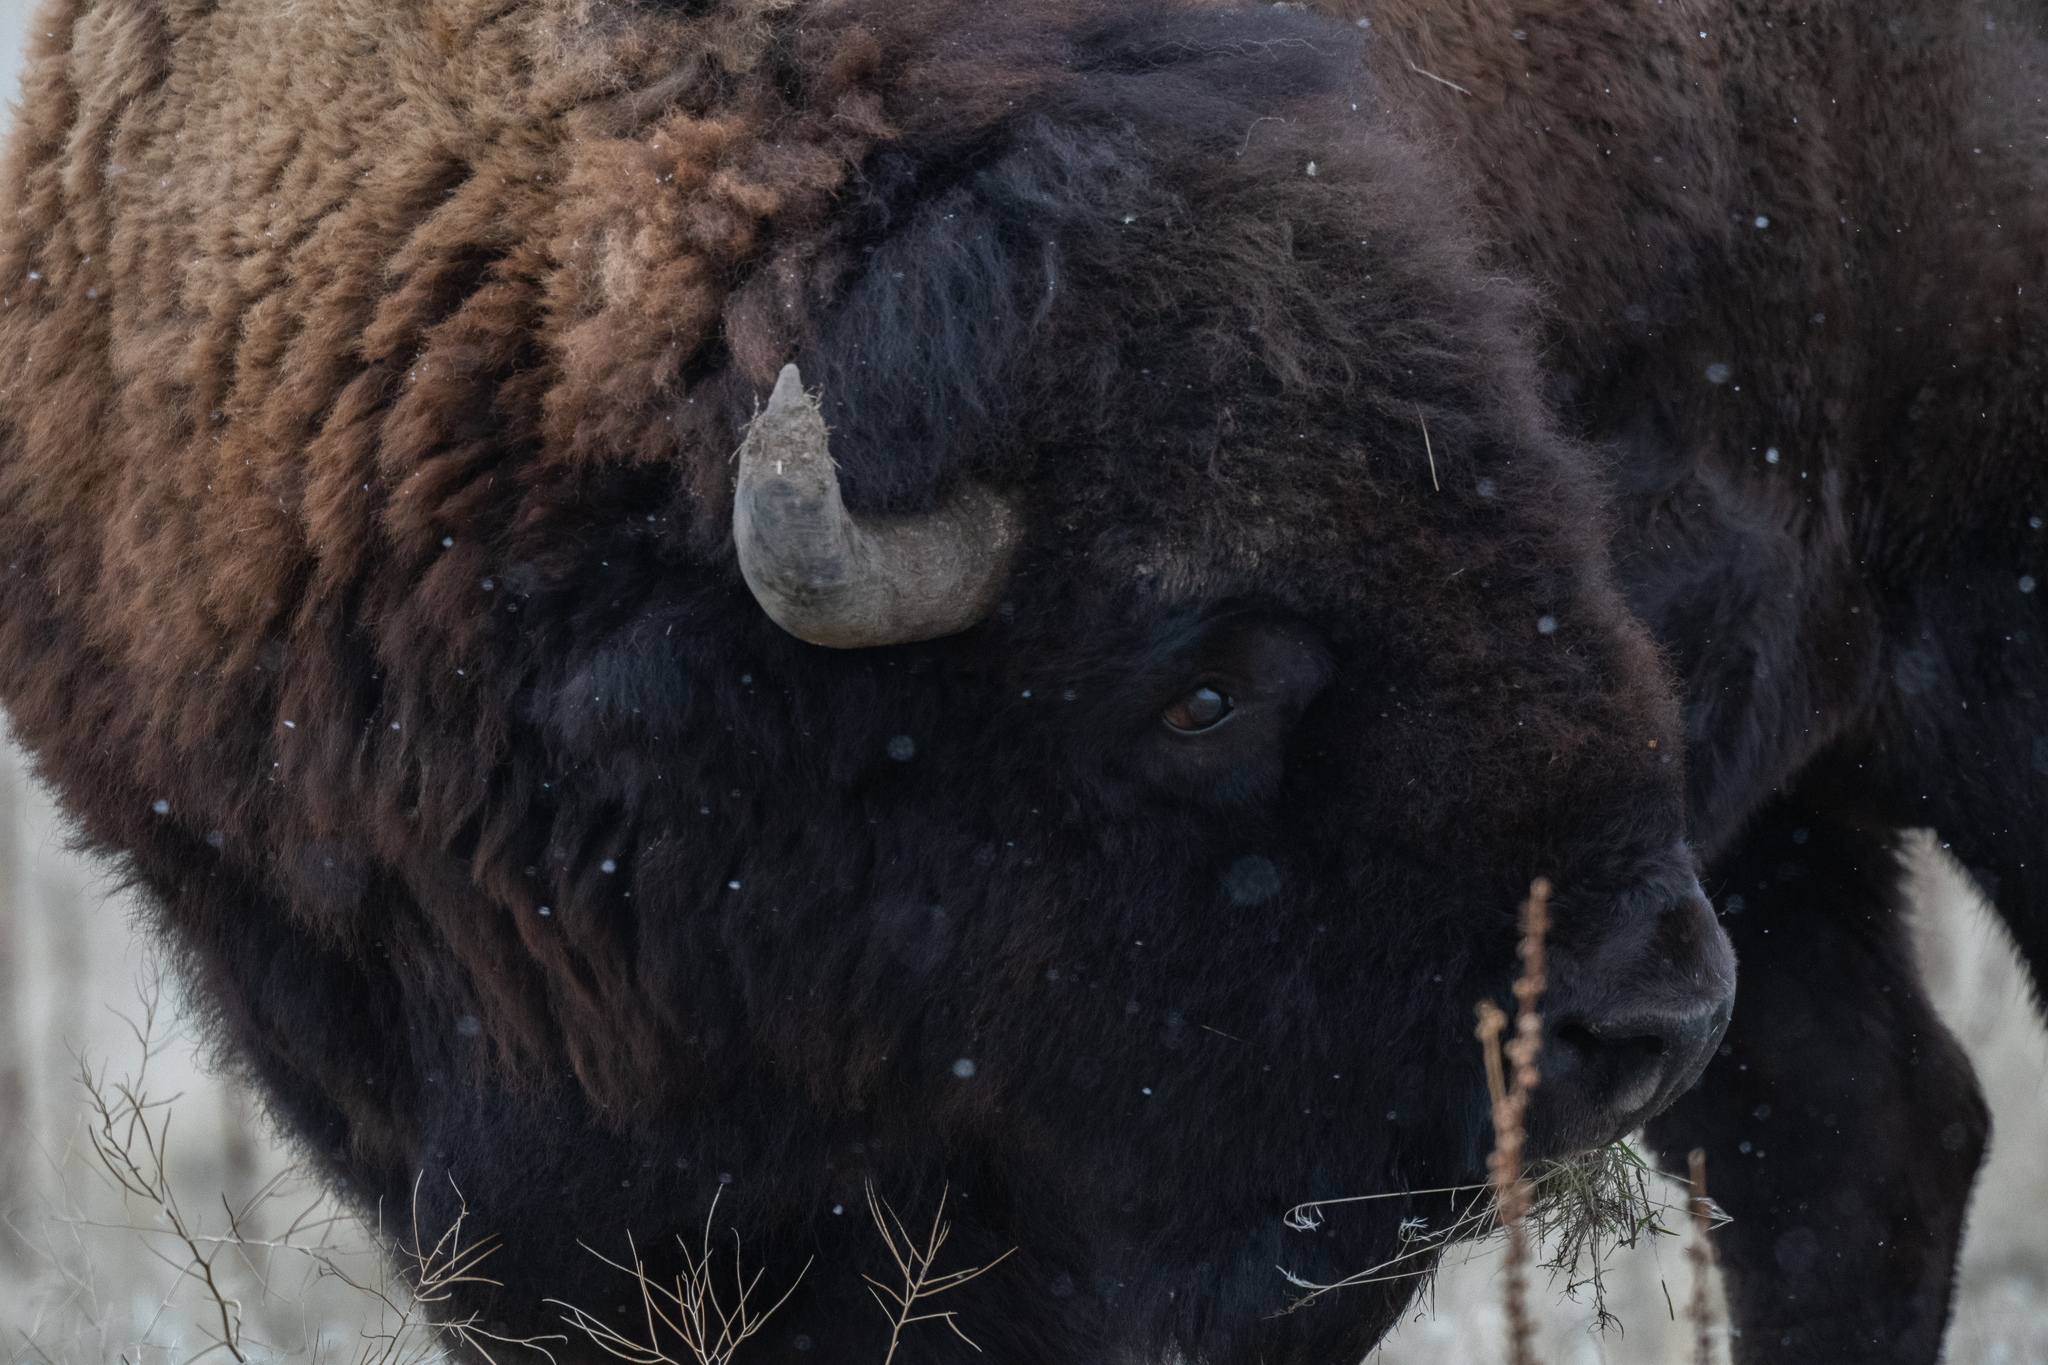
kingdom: Animalia
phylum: Chordata
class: Mammalia
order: Artiodactyla
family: Bovidae
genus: Bison
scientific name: Bison bison
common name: American bison
